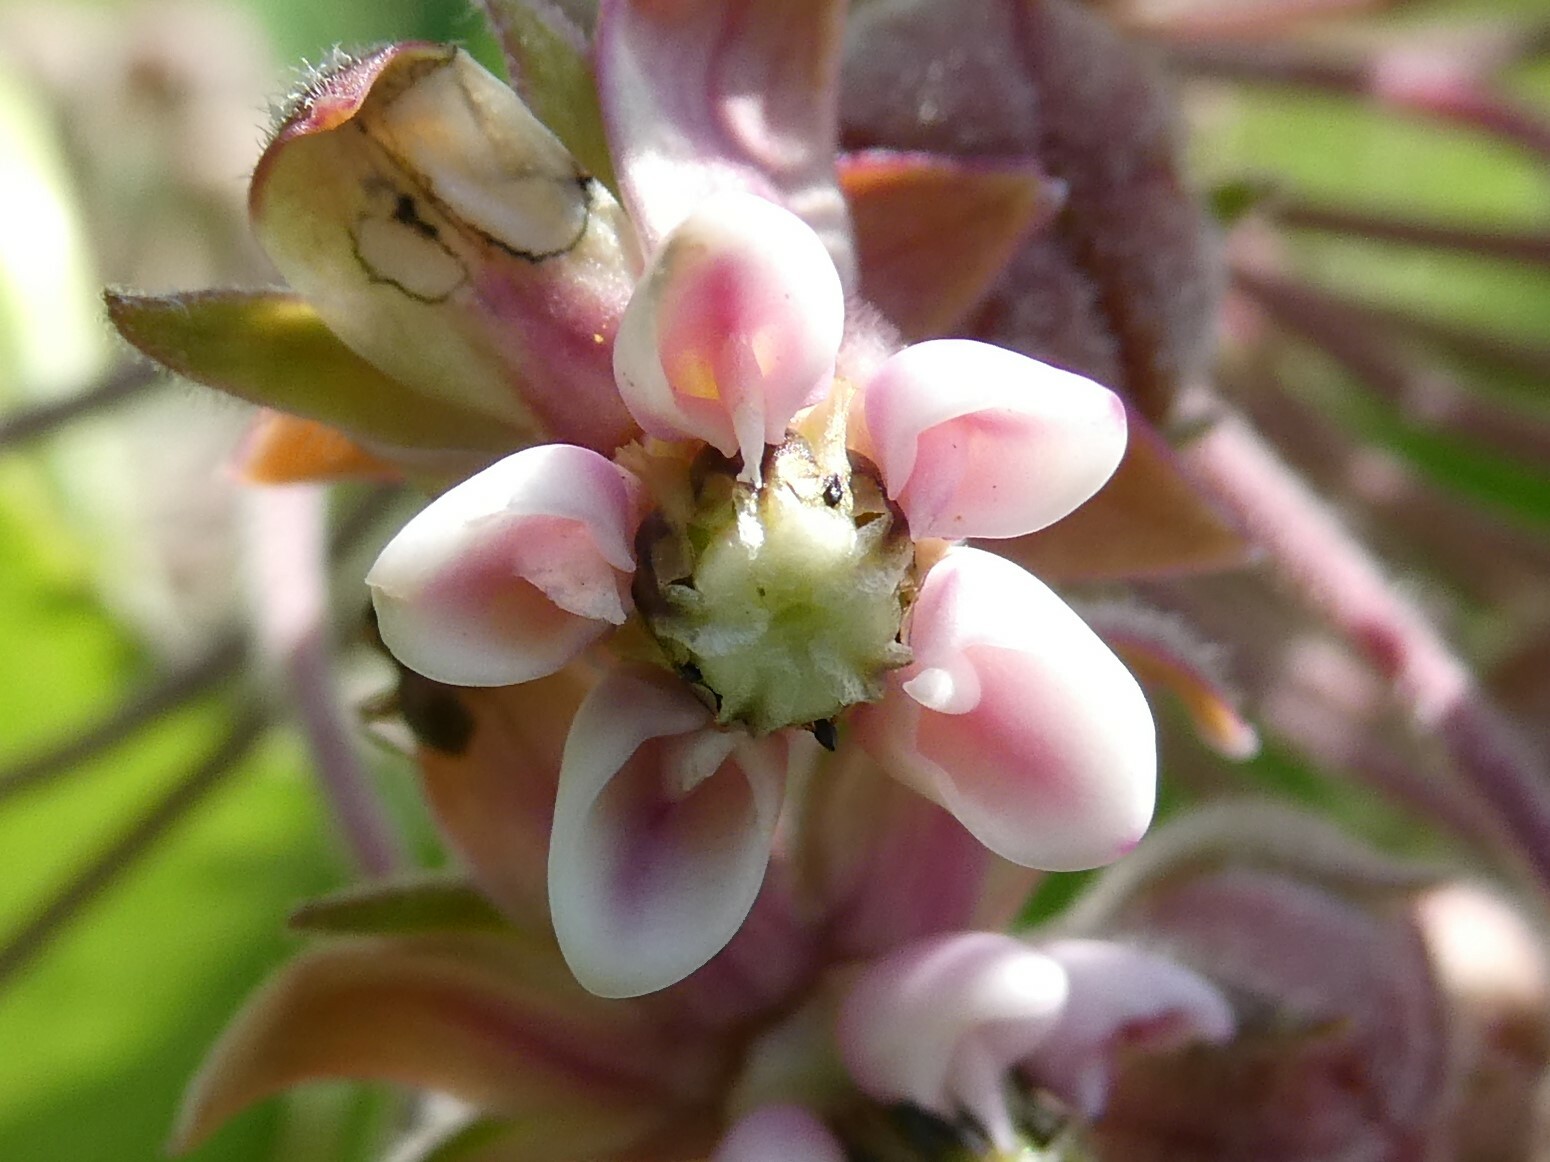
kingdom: Plantae
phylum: Tracheophyta
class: Magnoliopsida
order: Gentianales
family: Apocynaceae
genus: Asclepias
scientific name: Asclepias syriaca
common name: Common milkweed
